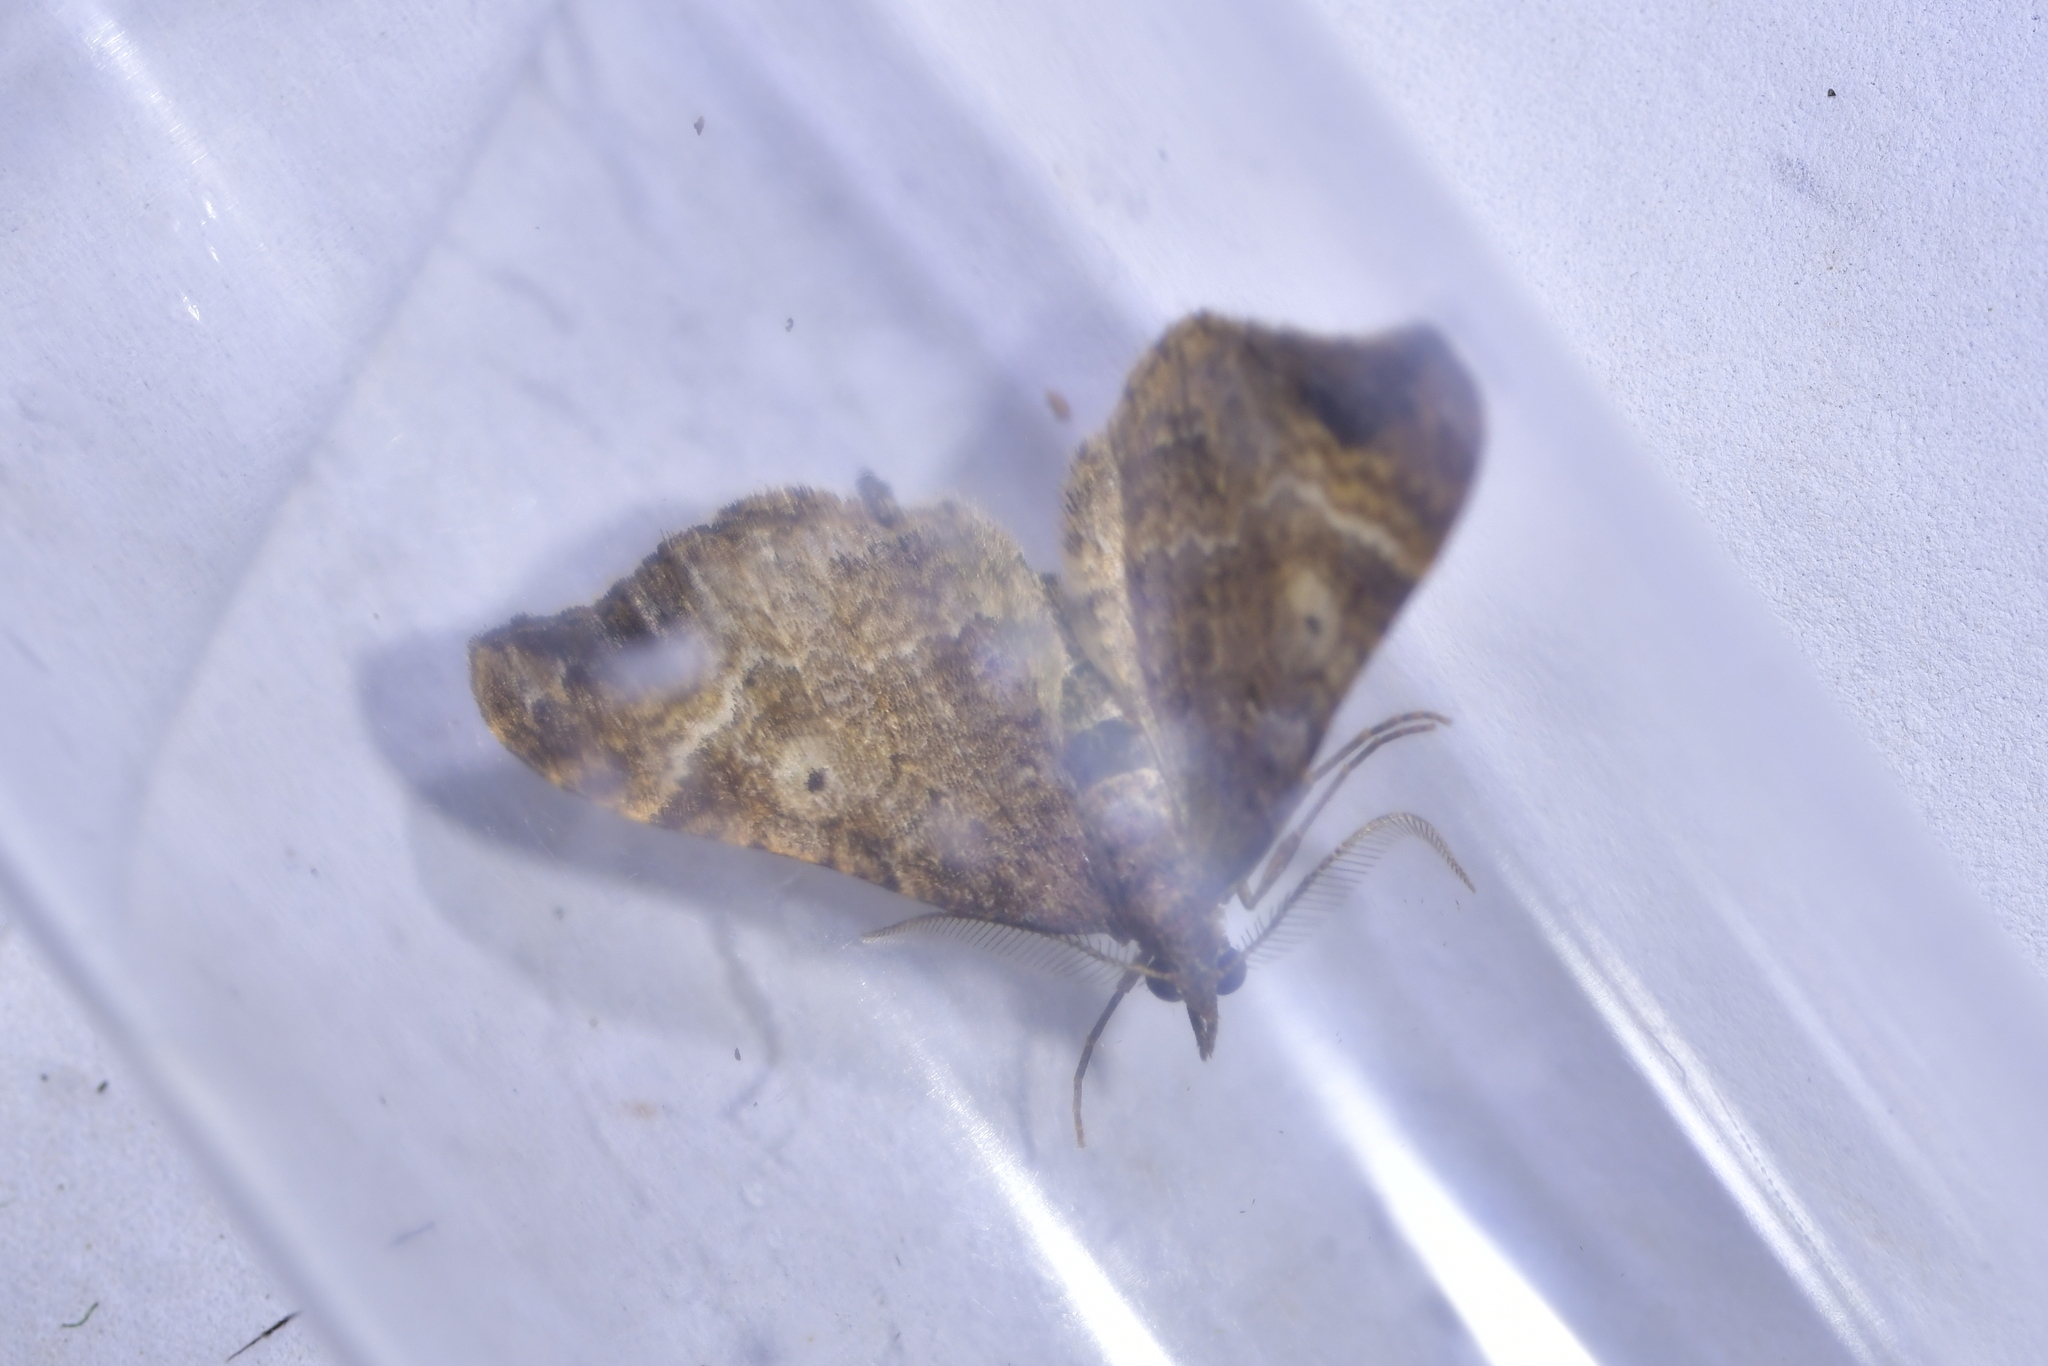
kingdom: Animalia
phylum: Arthropoda
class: Insecta
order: Lepidoptera
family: Geometridae
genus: Homodotis
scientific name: Homodotis megaspilata
